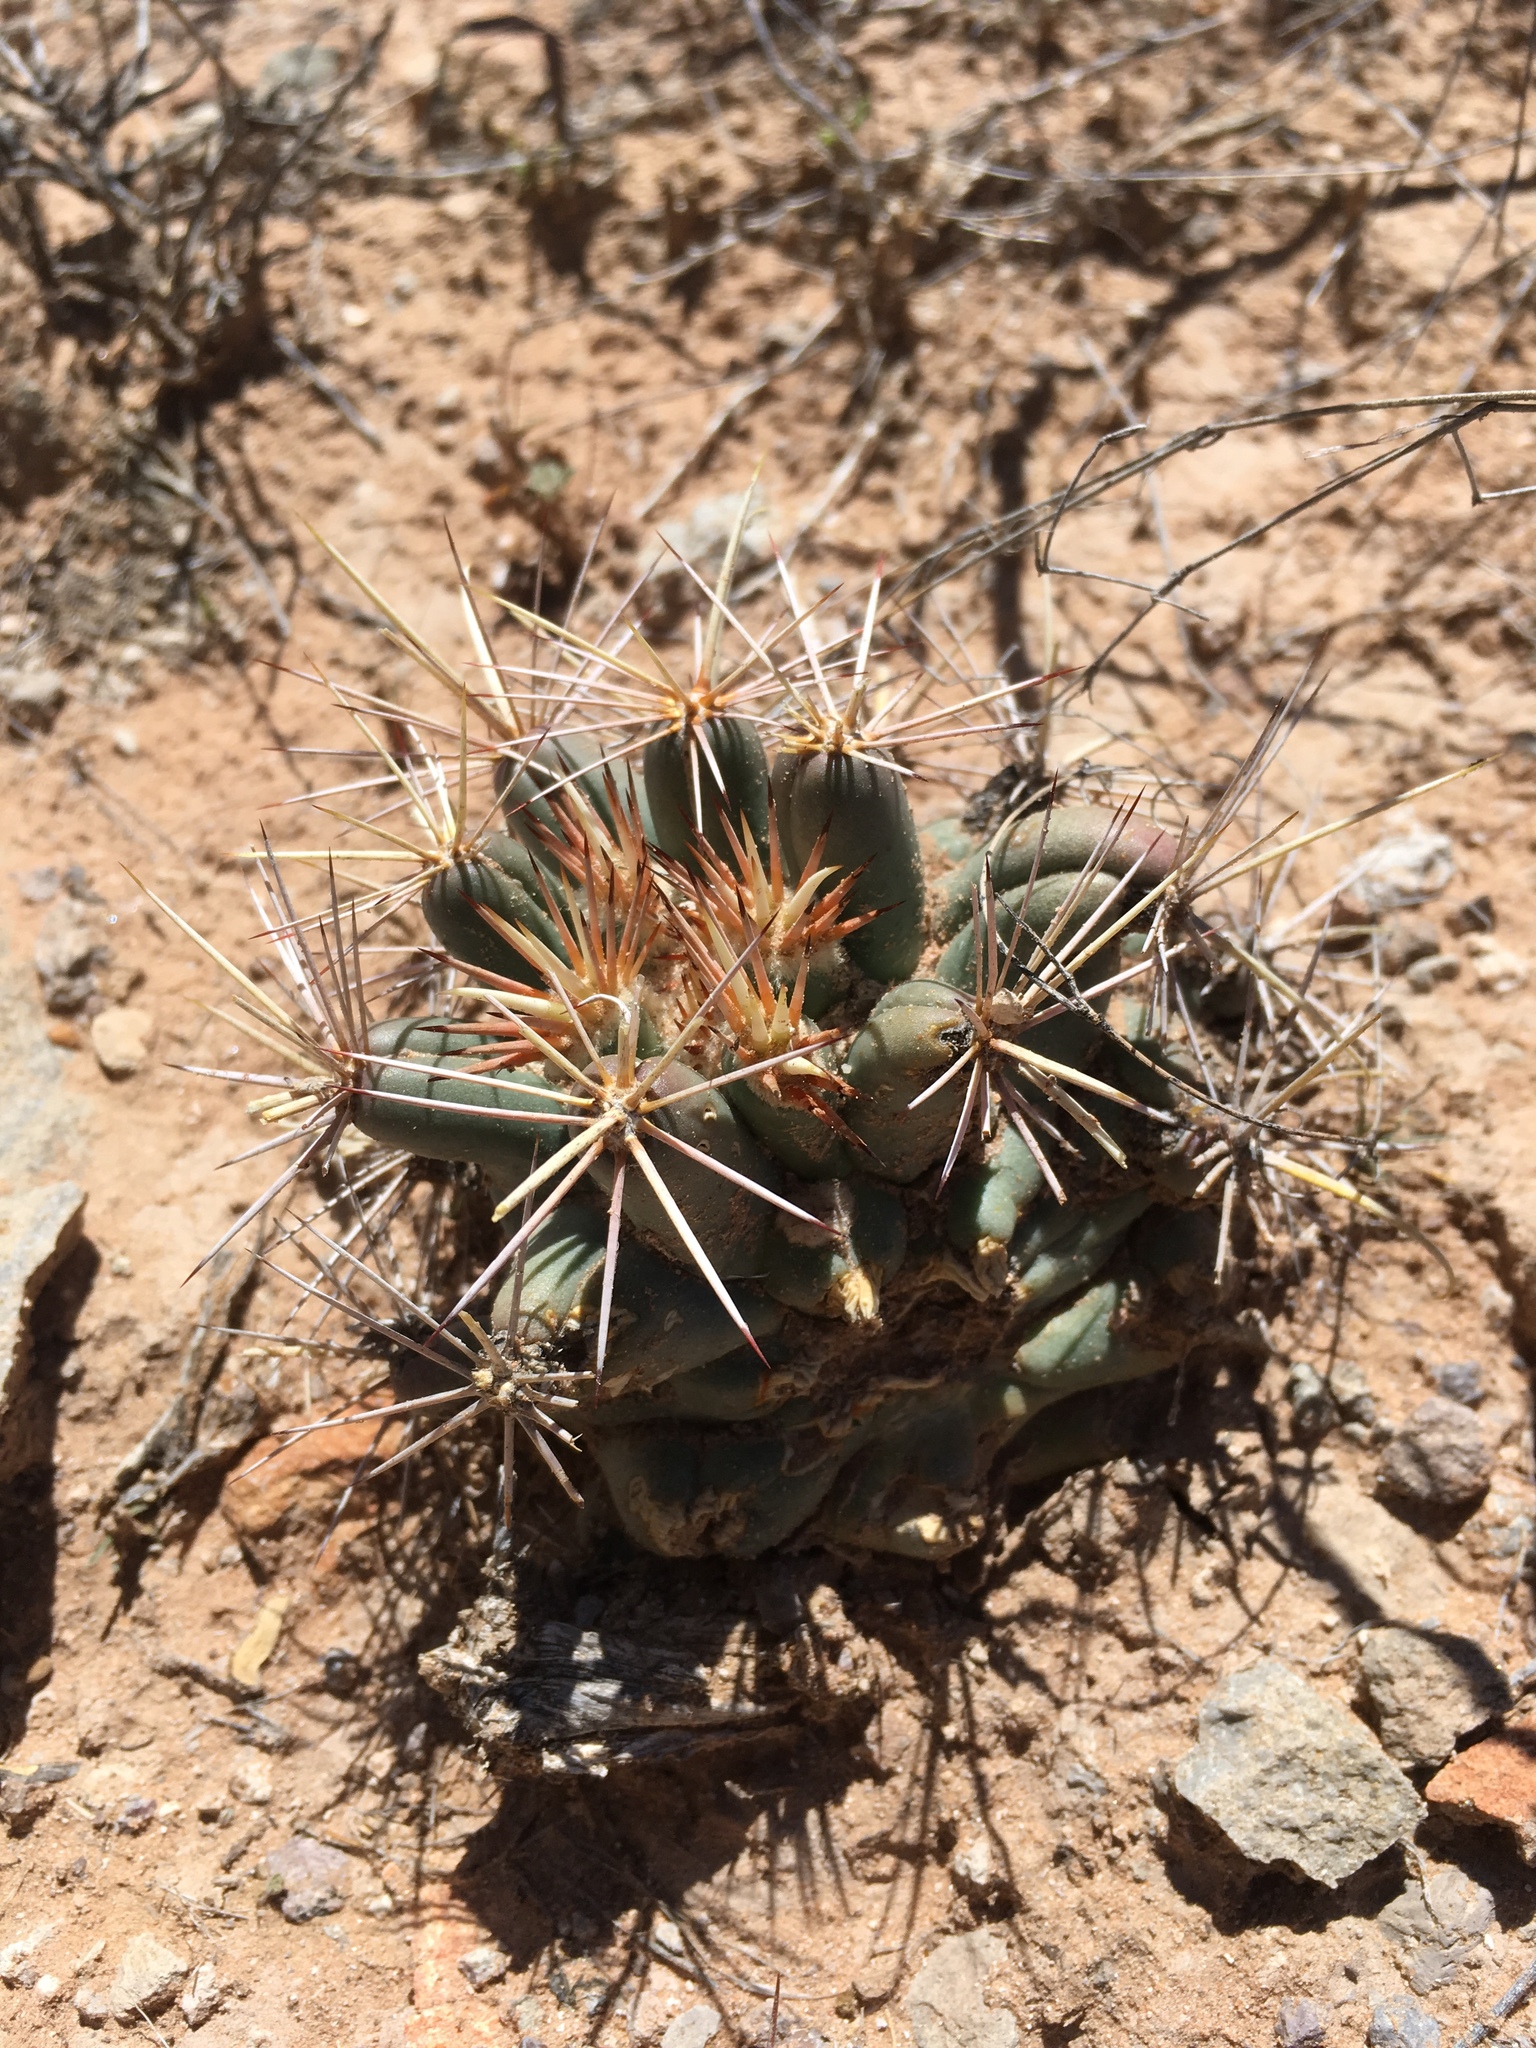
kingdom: Plantae
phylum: Tracheophyta
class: Magnoliopsida
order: Caryophyllales
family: Cactaceae
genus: Coryphantha
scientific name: Coryphantha robustispina
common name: Pima pineapple cactus
